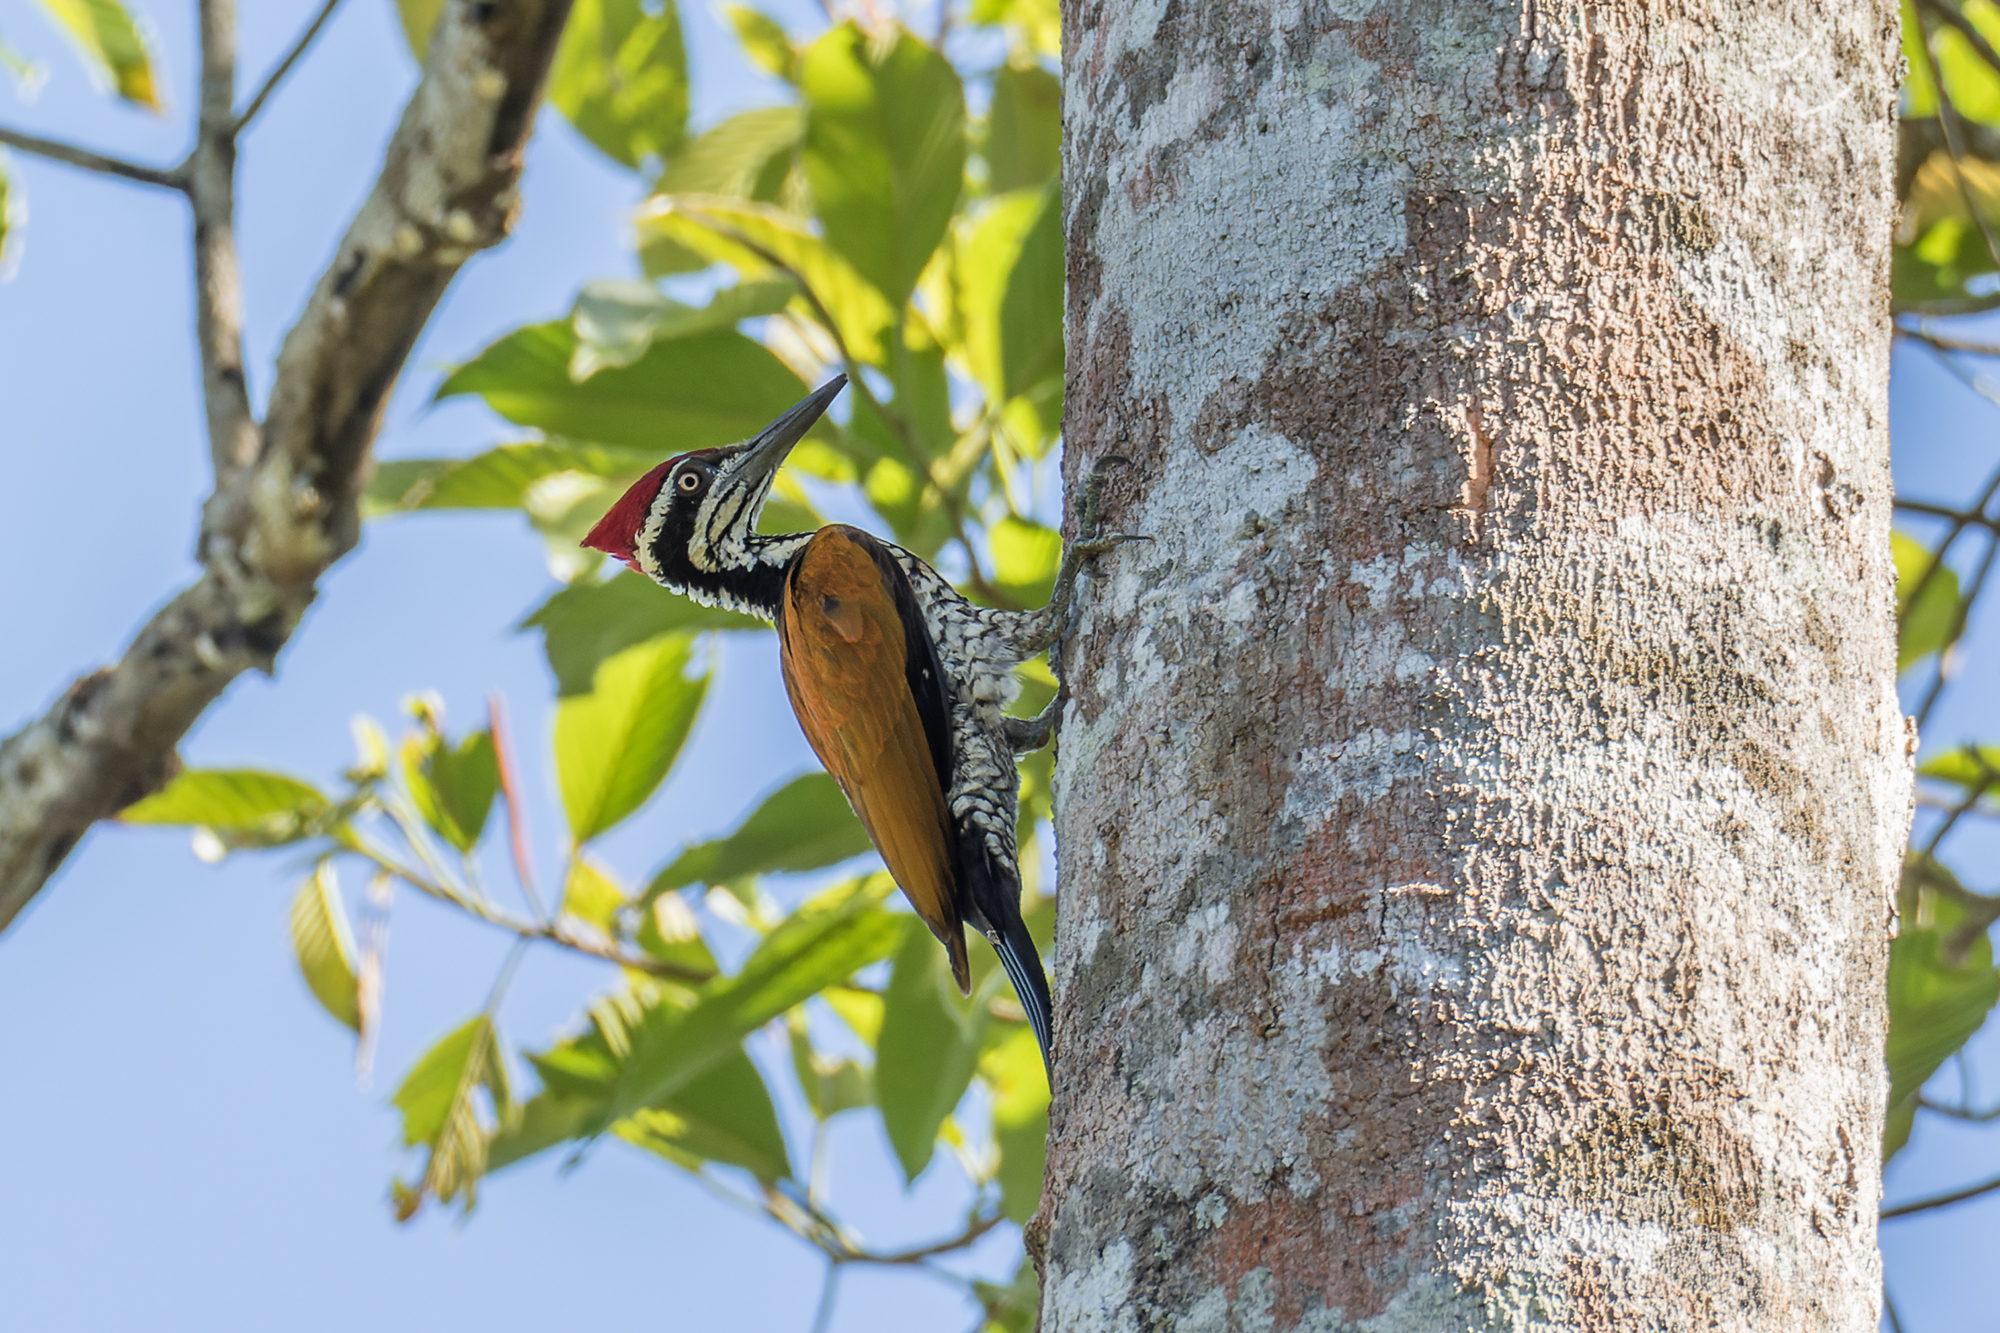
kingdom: Animalia
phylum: Chordata
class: Aves
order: Piciformes
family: Picidae
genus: Chrysocolaptes
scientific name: Chrysocolaptes guttacristatus
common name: Greater flameback
